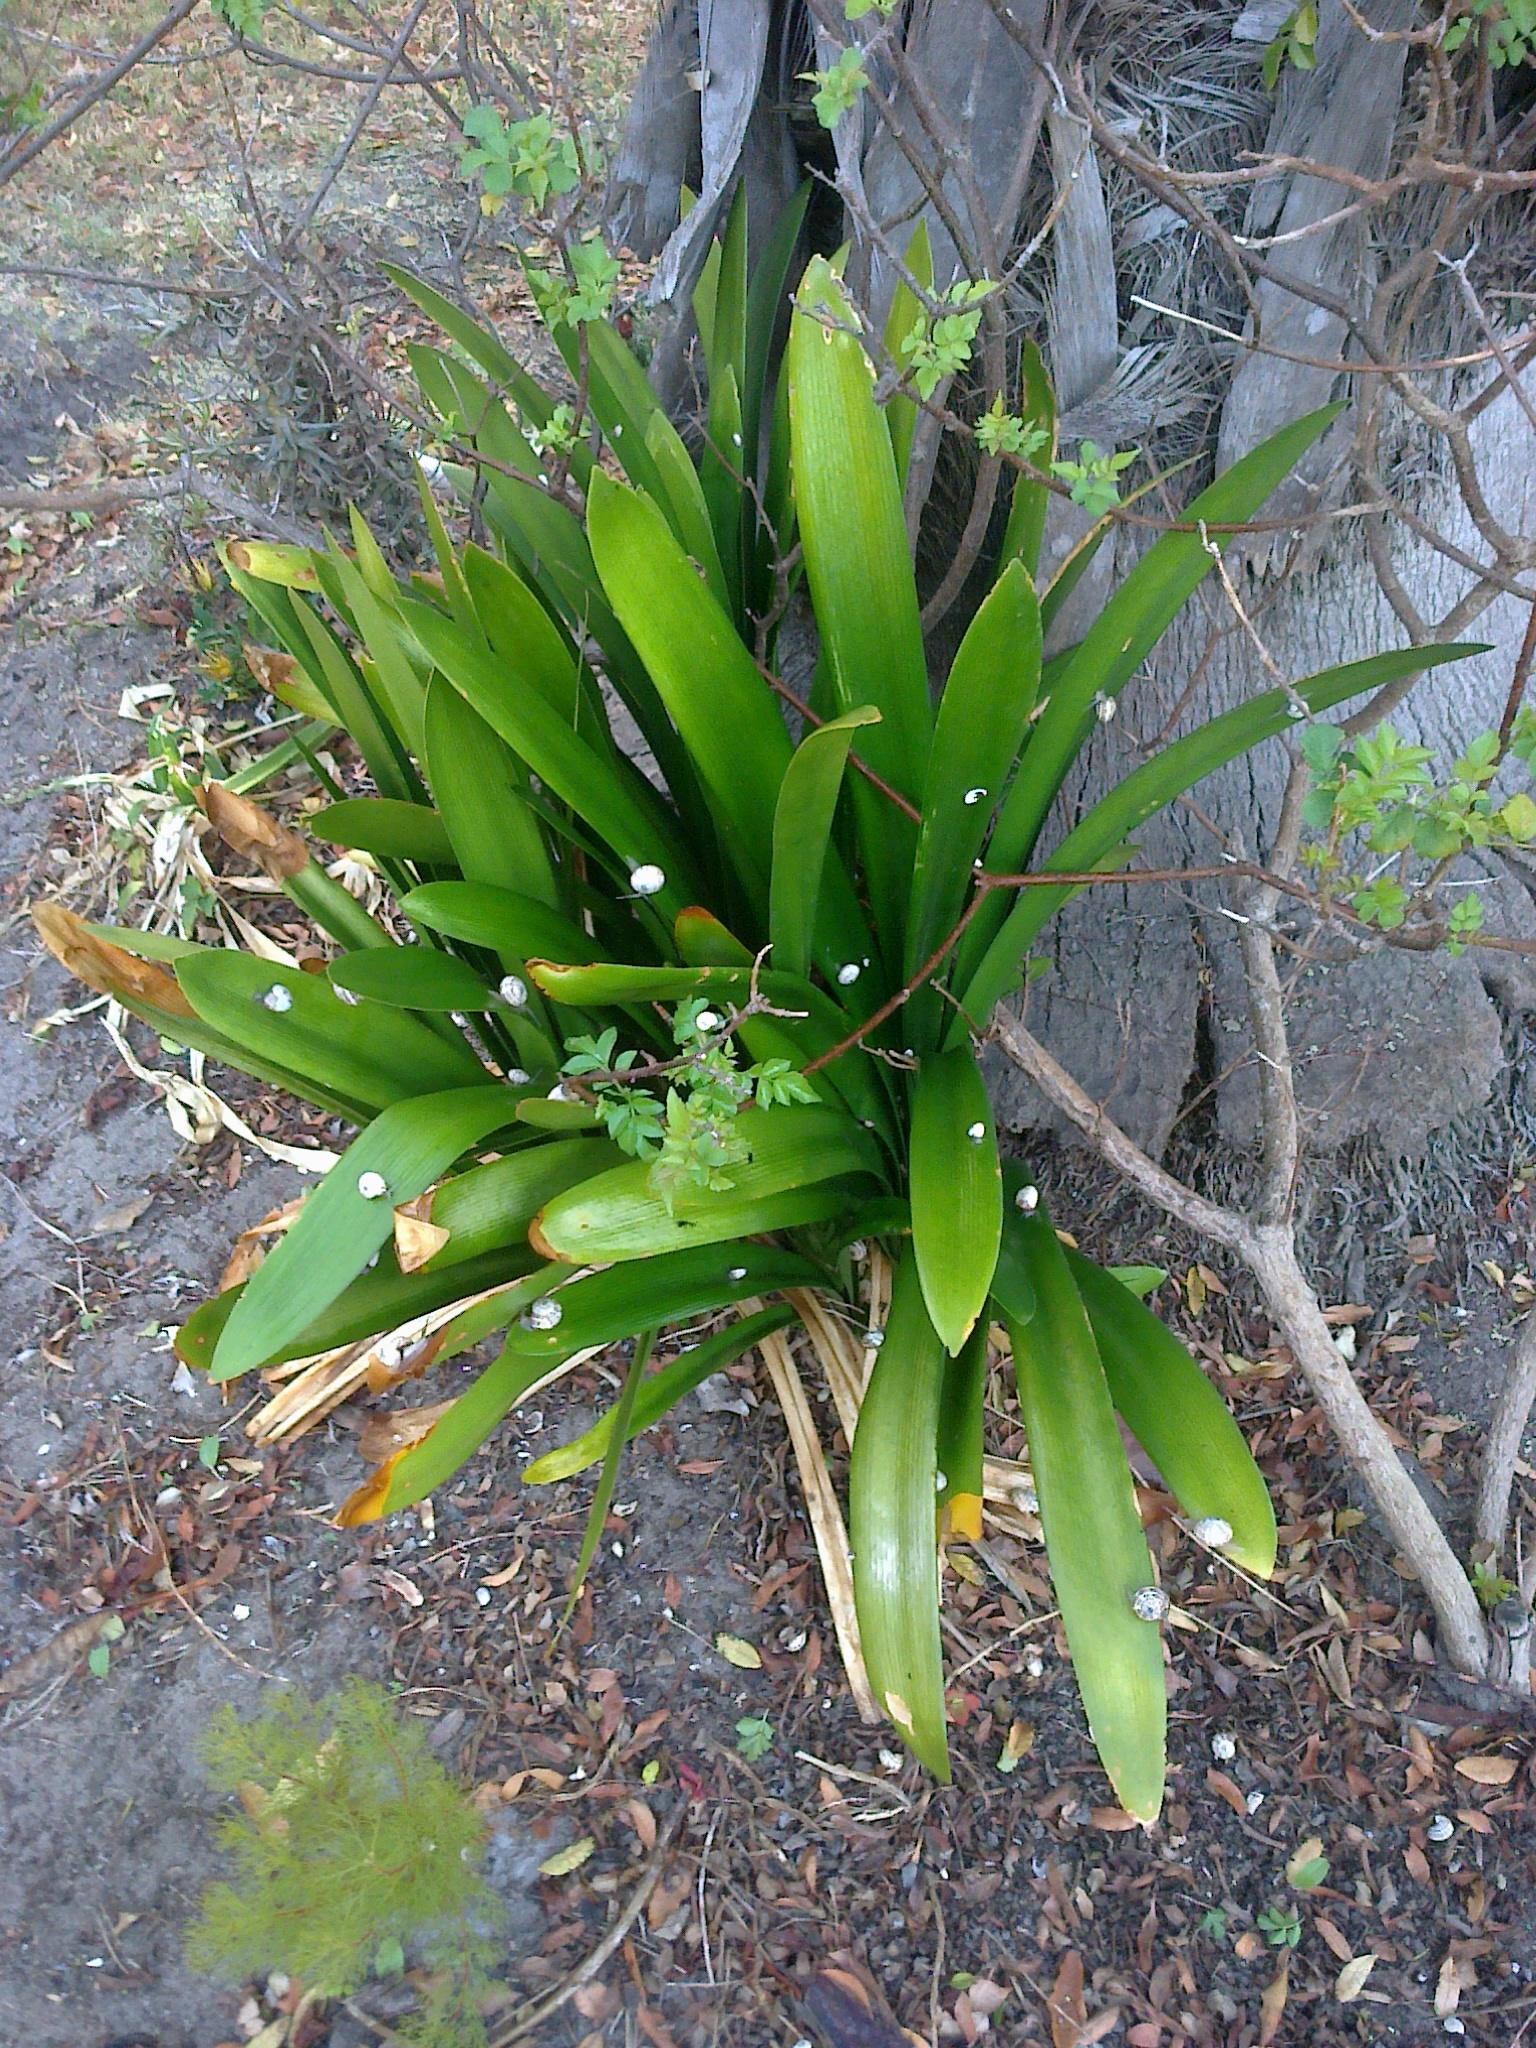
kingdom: Animalia
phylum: Mollusca
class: Gastropoda
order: Stylommatophora
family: Helicidae
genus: Theba
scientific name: Theba pisana
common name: White snail
